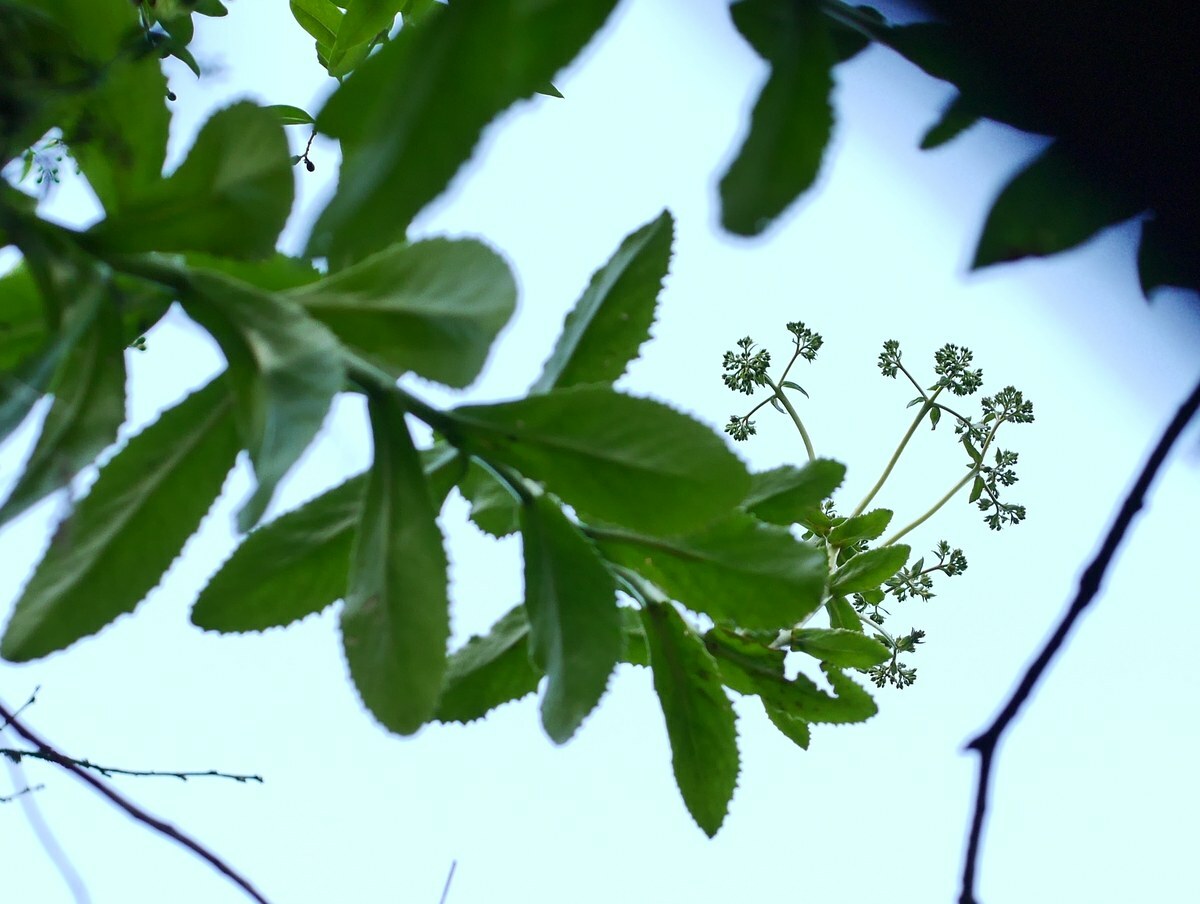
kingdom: Plantae
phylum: Tracheophyta
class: Magnoliopsida
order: Saxifragales
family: Crassulaceae
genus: Hylotelephium
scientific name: Hylotelephium maximum
